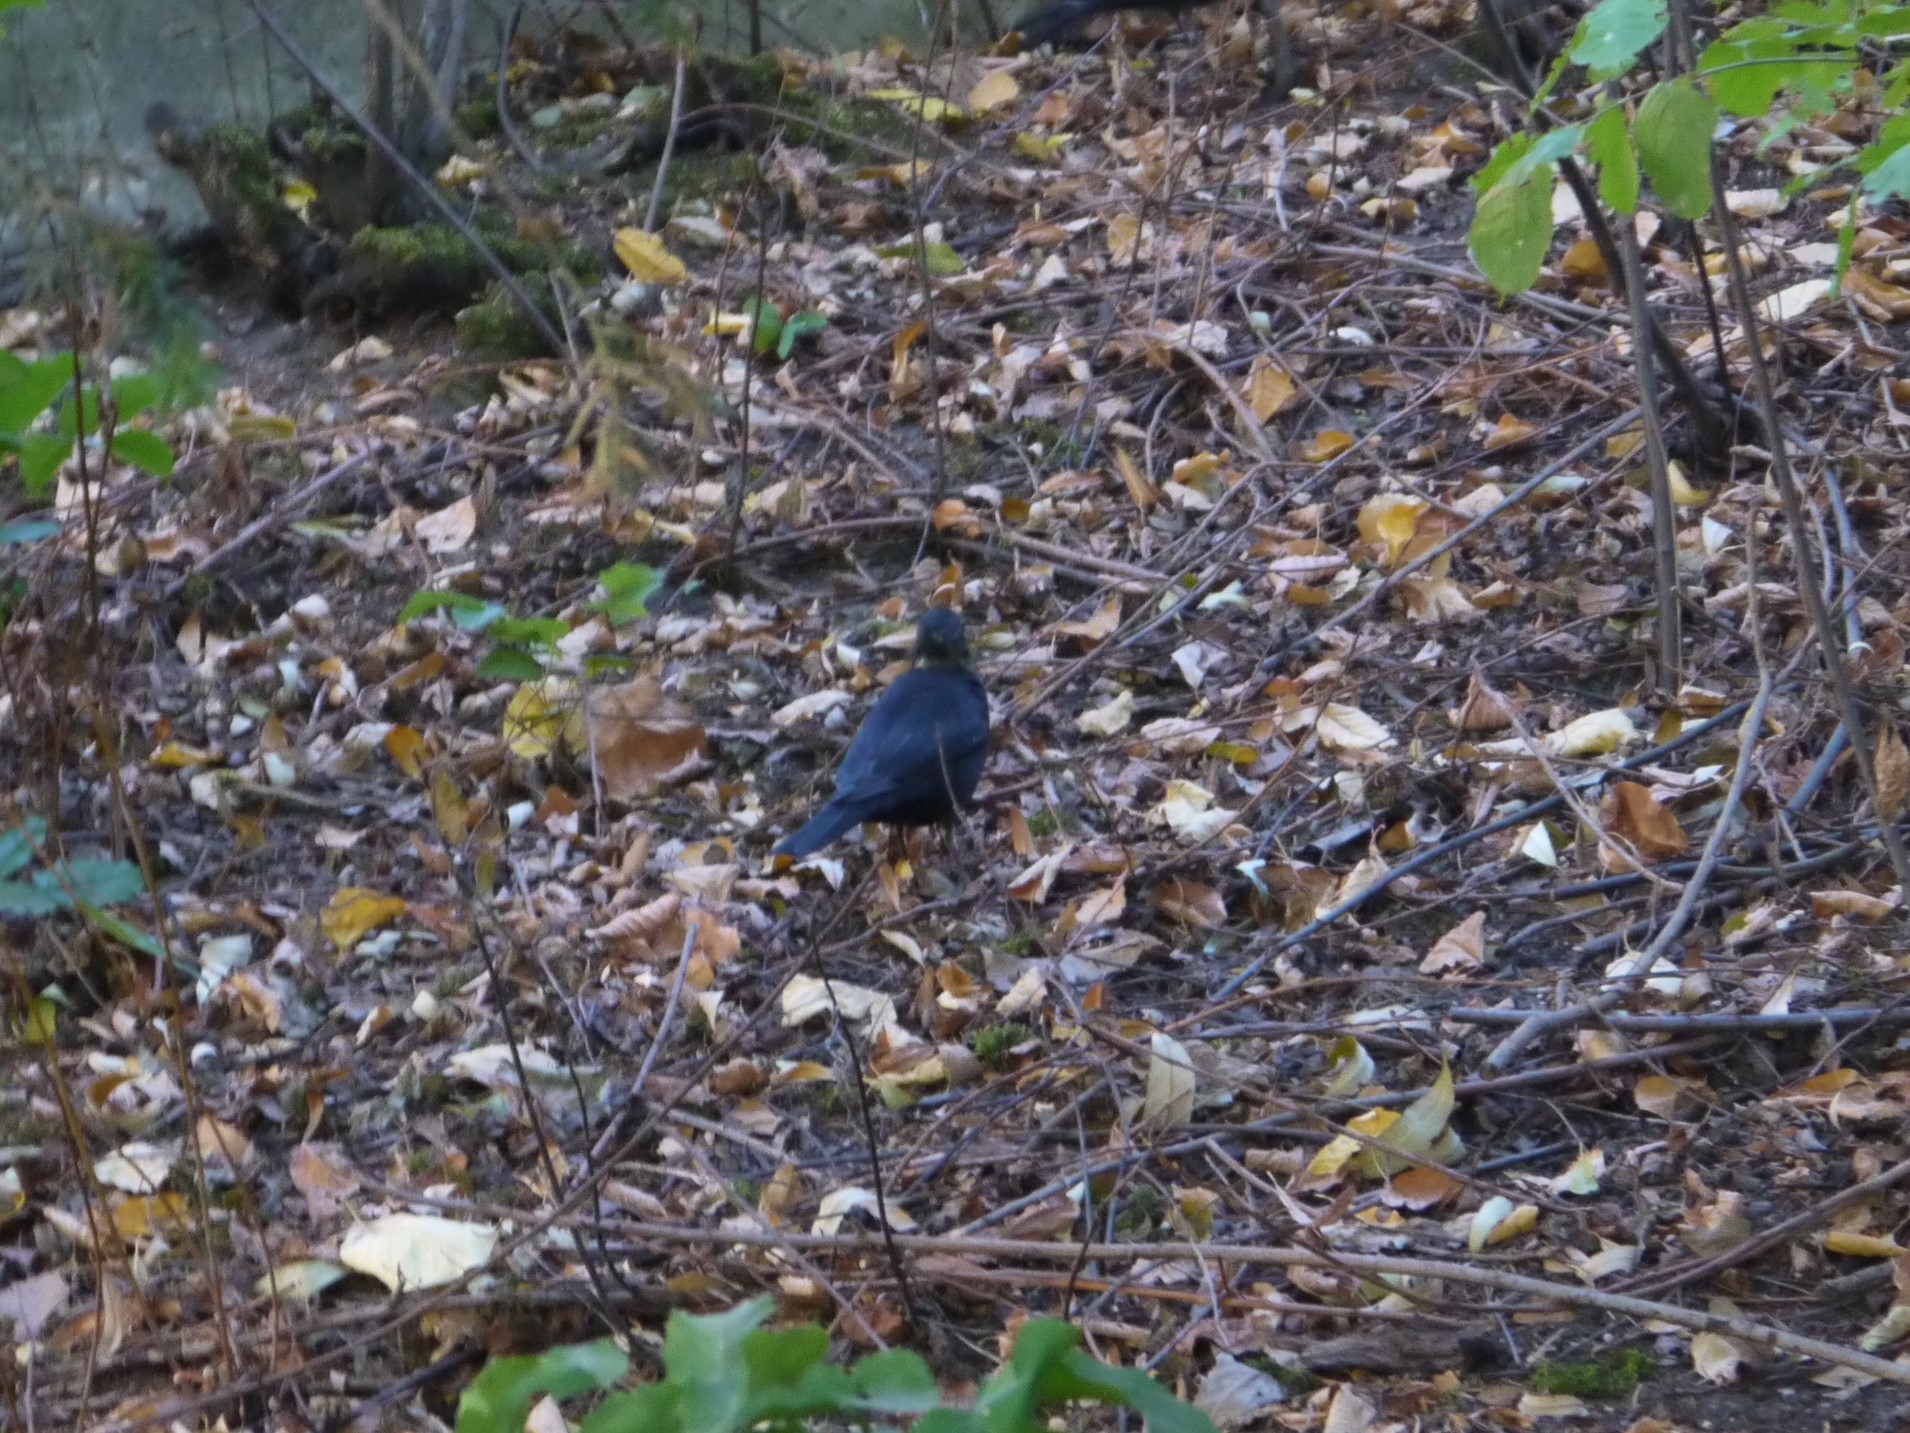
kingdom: Animalia
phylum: Chordata
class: Aves
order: Passeriformes
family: Turdidae
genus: Turdus
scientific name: Turdus merula
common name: Common blackbird
